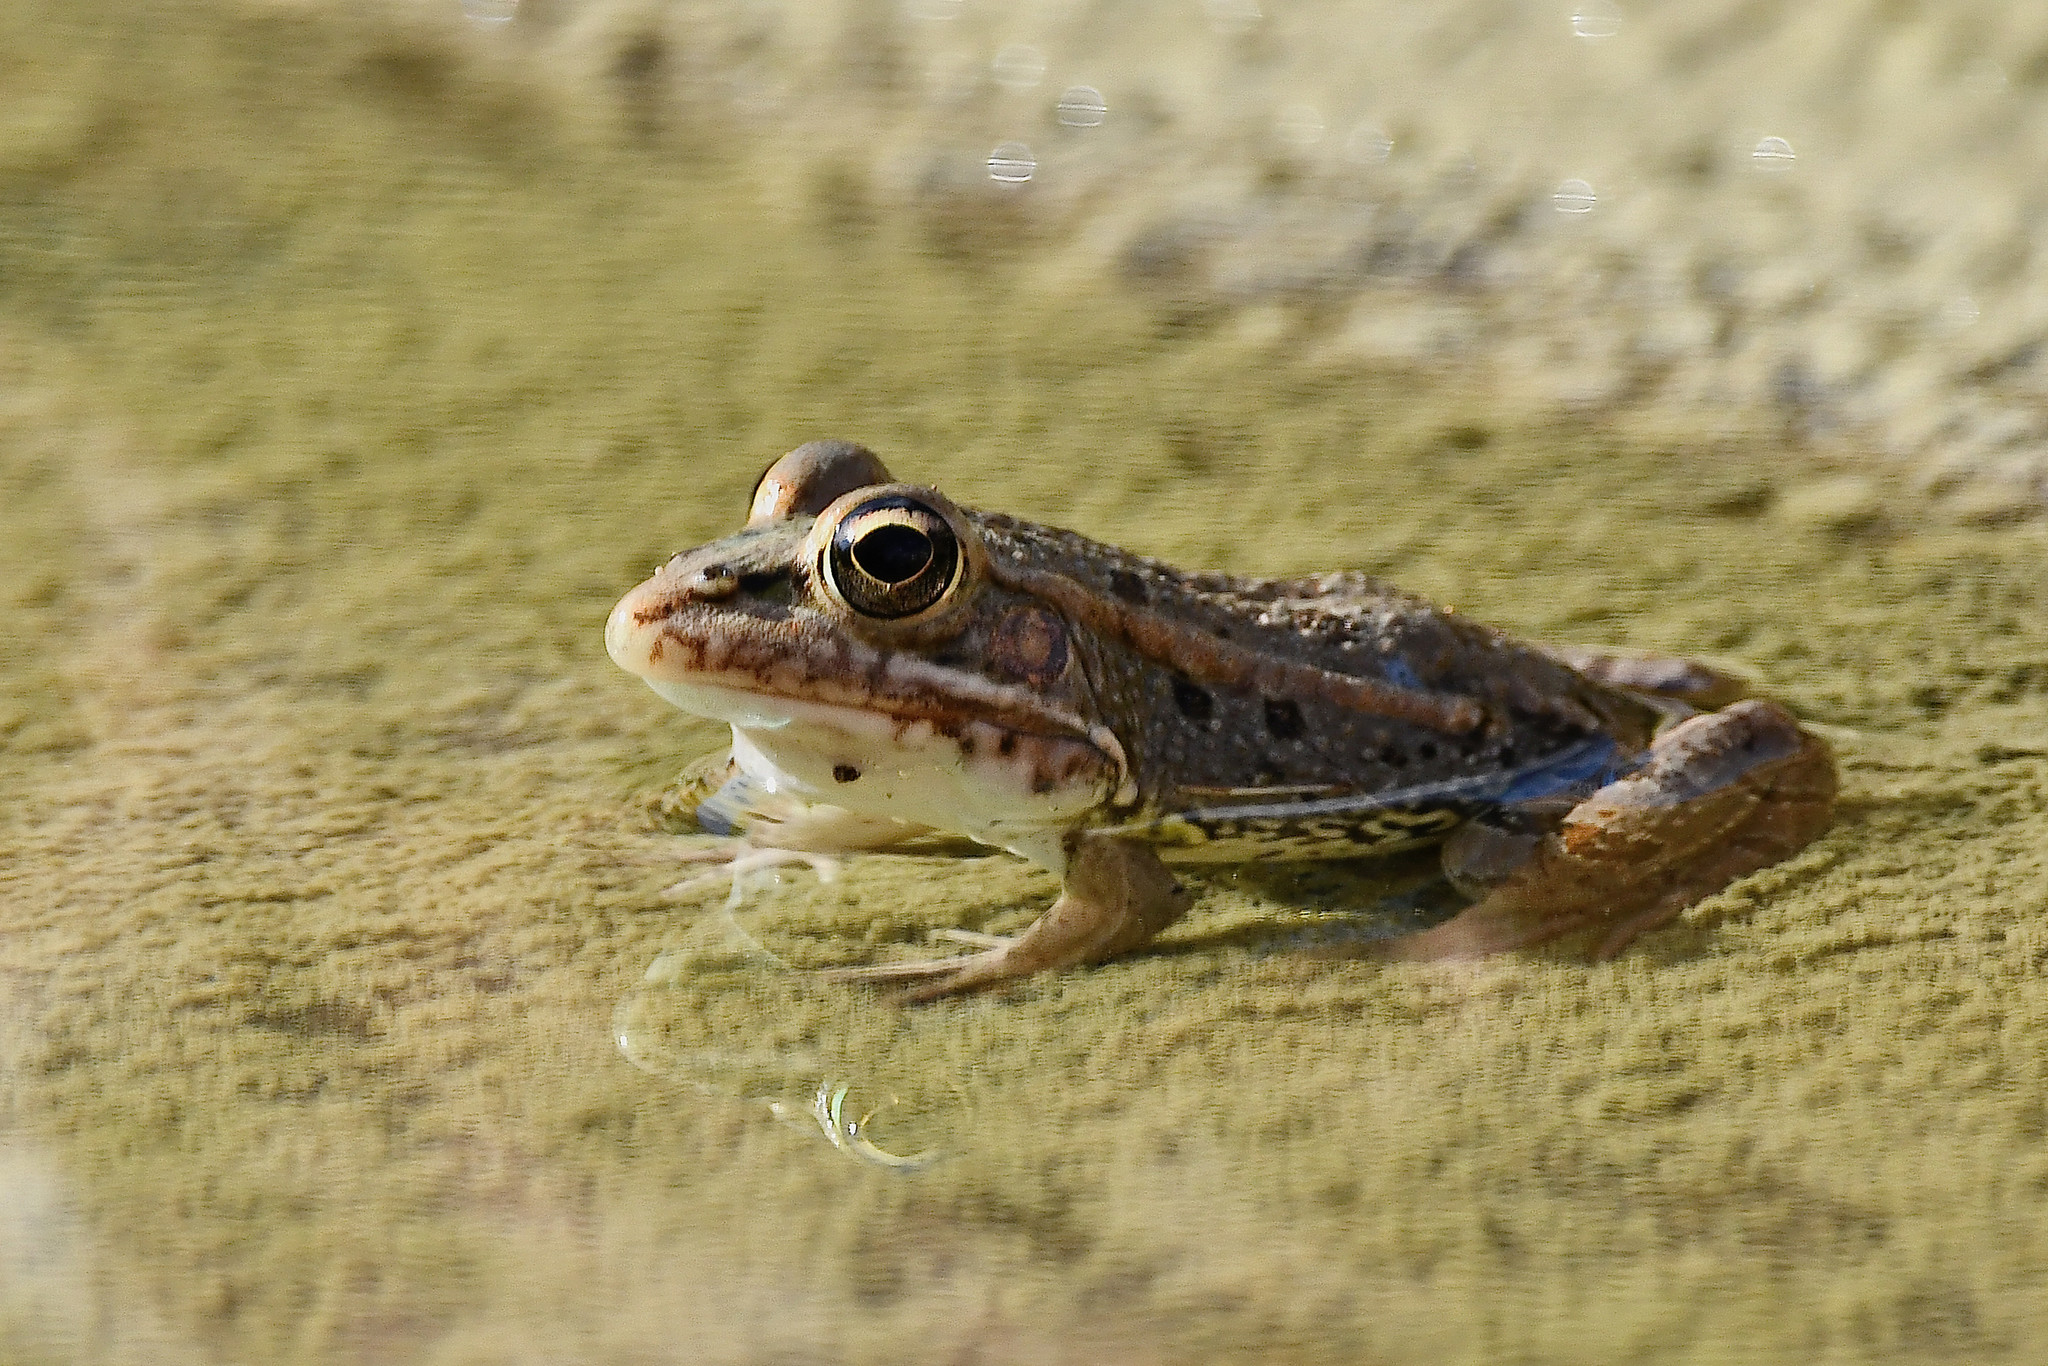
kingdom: Animalia
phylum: Chordata
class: Amphibia
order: Anura
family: Ranidae
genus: Pelophylax
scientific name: Pelophylax perezi
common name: Perez's frog
